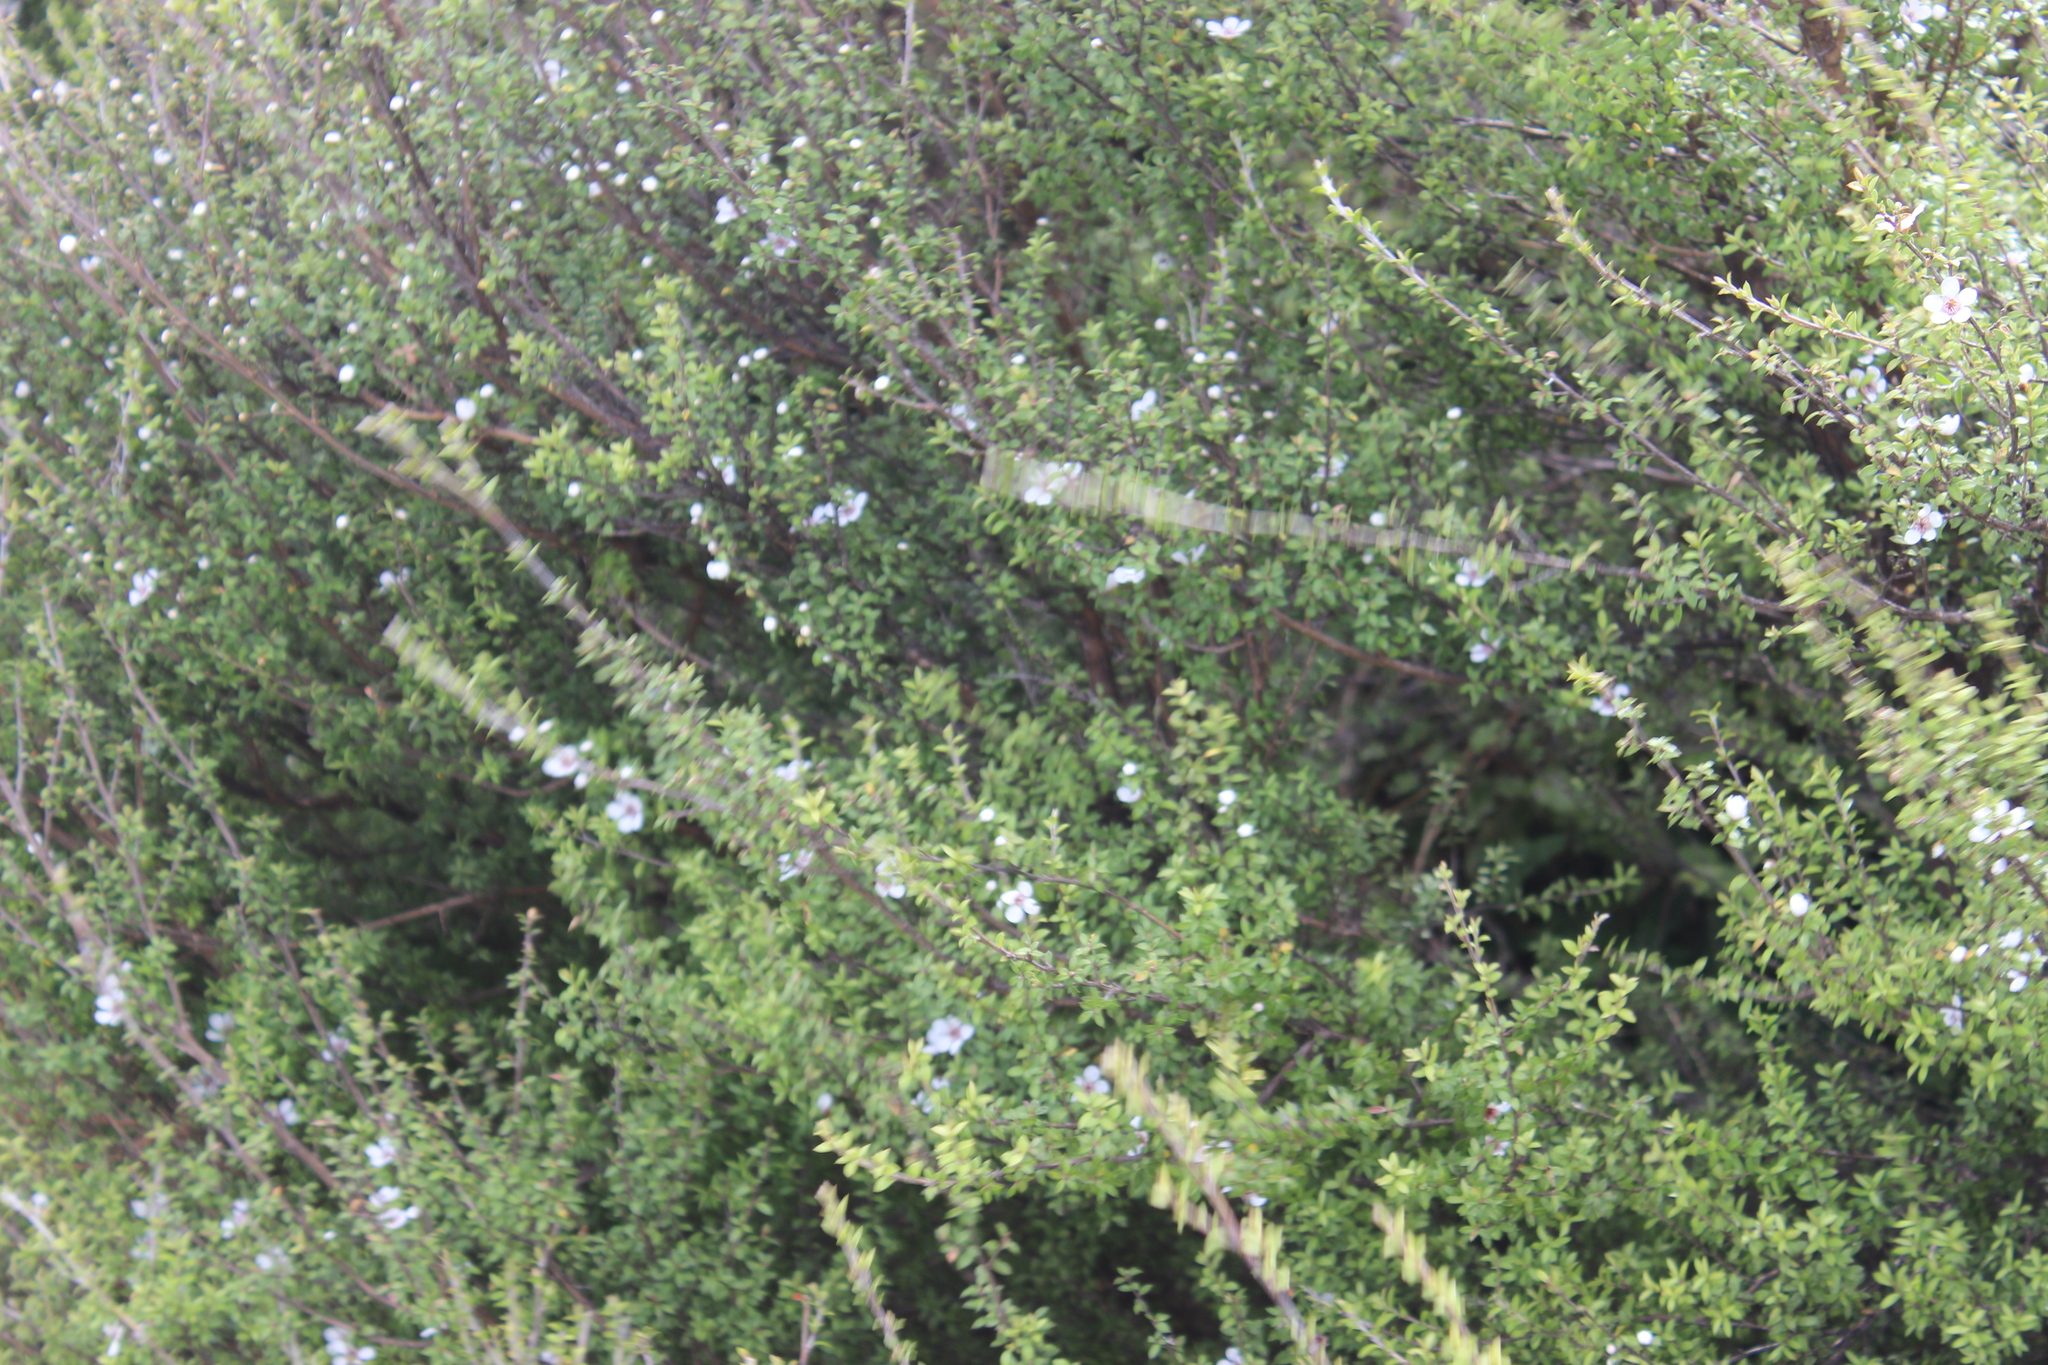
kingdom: Plantae
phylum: Tracheophyta
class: Magnoliopsida
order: Myrtales
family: Myrtaceae
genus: Leptospermum
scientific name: Leptospermum scoparium
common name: Broom tea-tree
